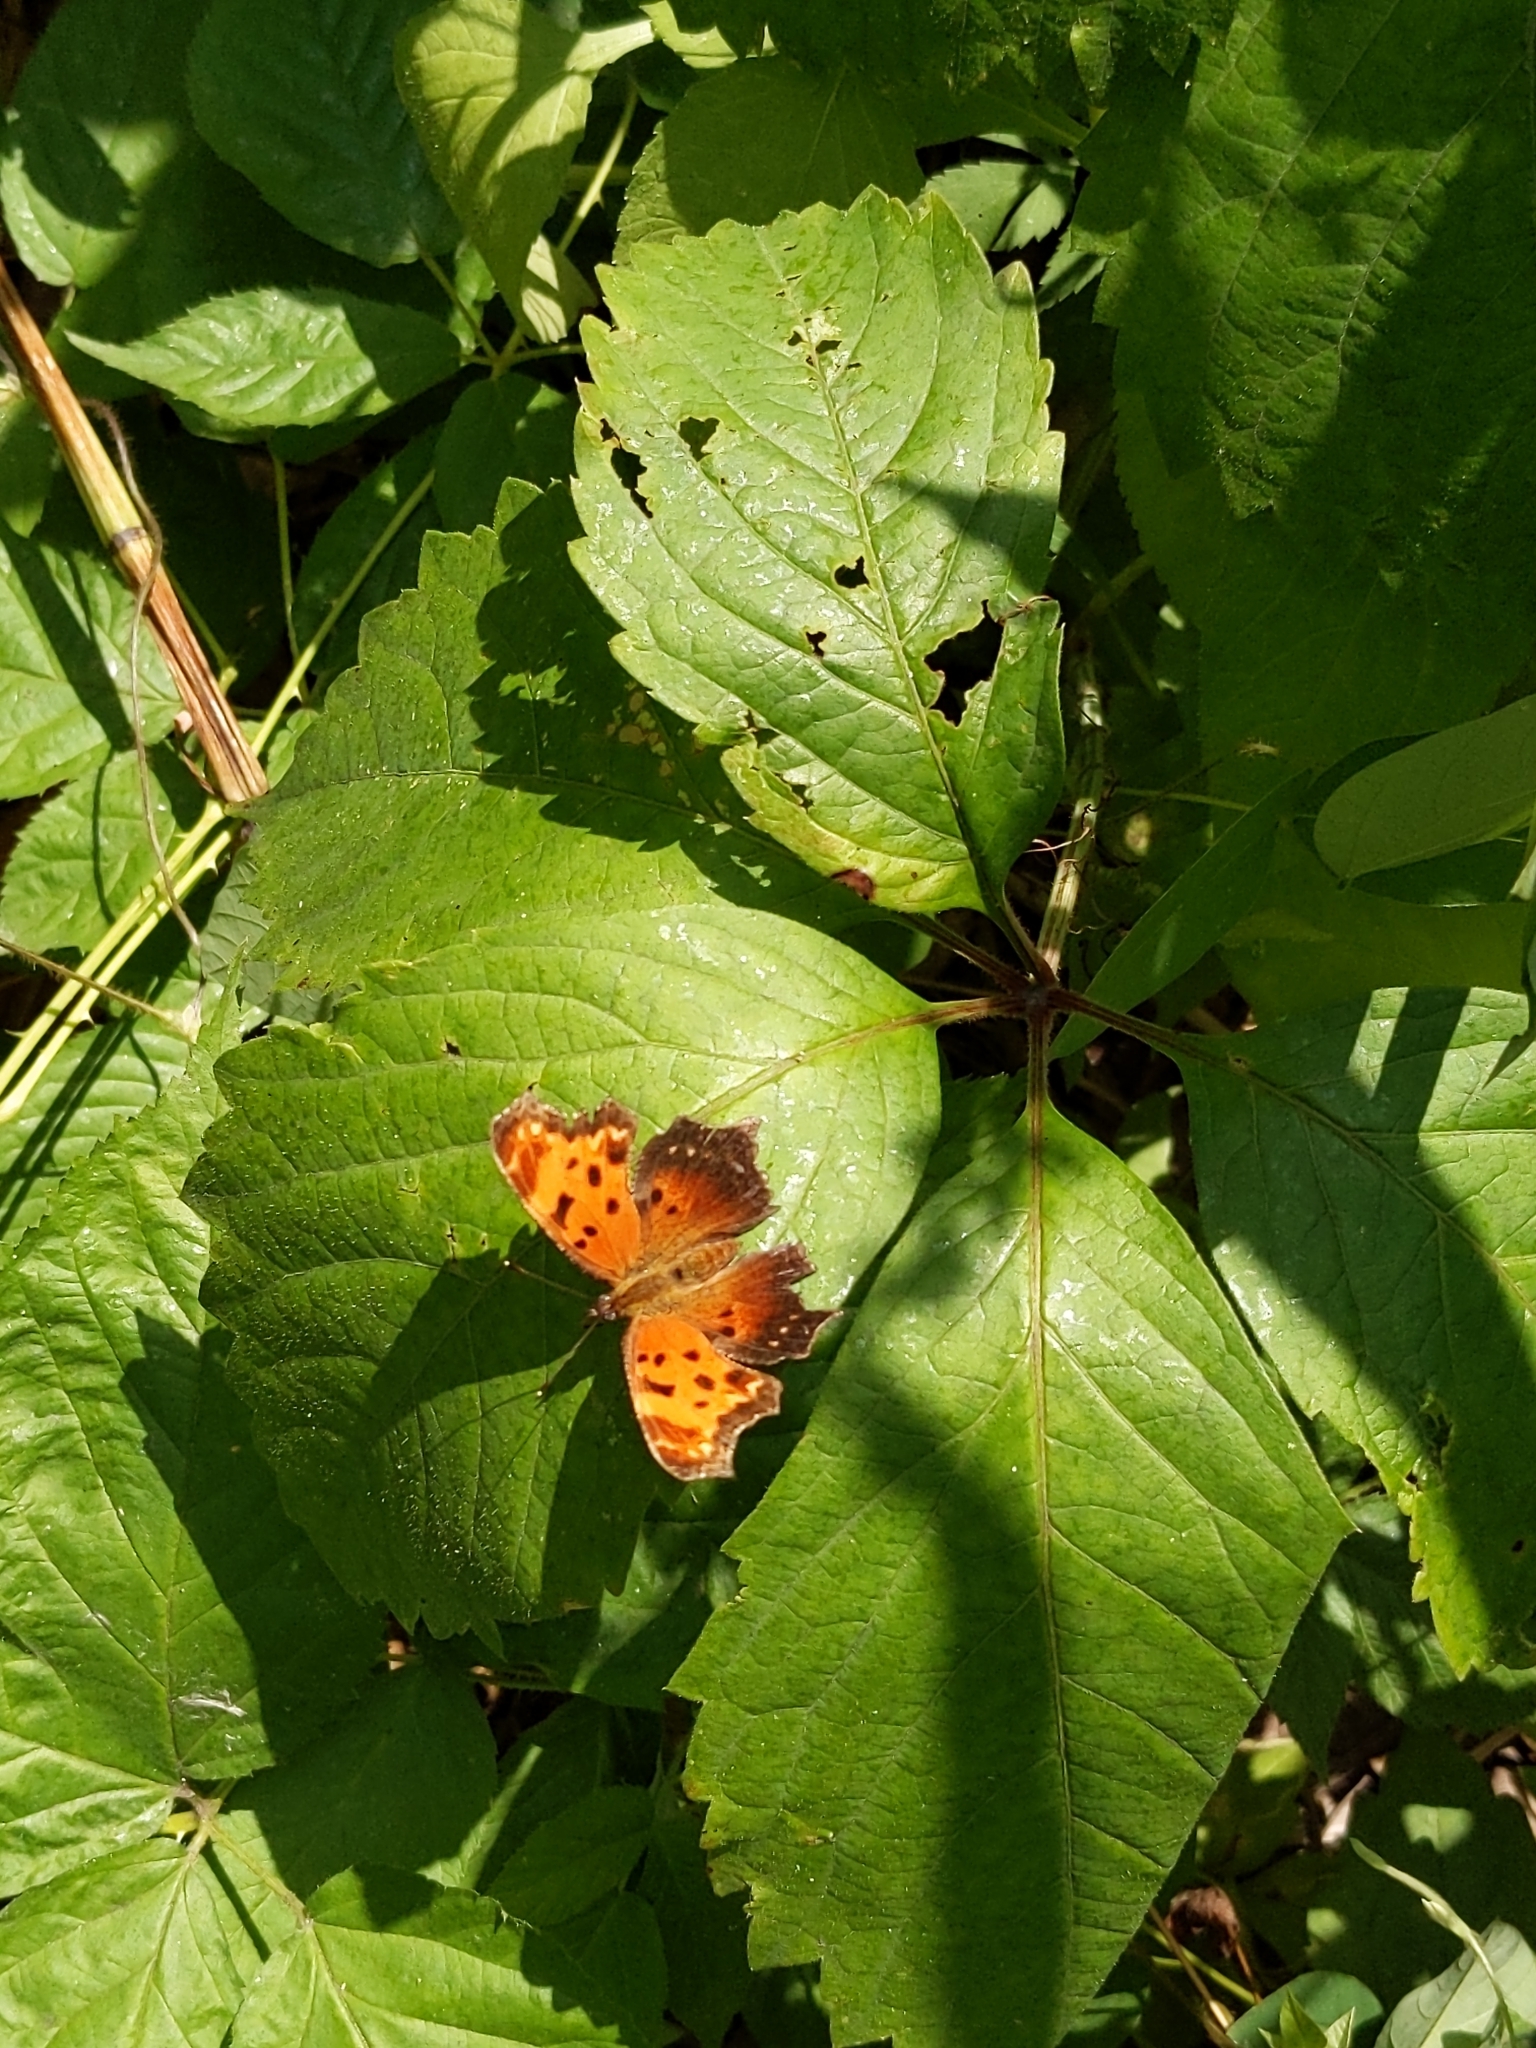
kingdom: Animalia
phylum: Arthropoda
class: Insecta
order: Lepidoptera
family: Nymphalidae
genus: Polygonia
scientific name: Polygonia progne
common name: Gray comma
